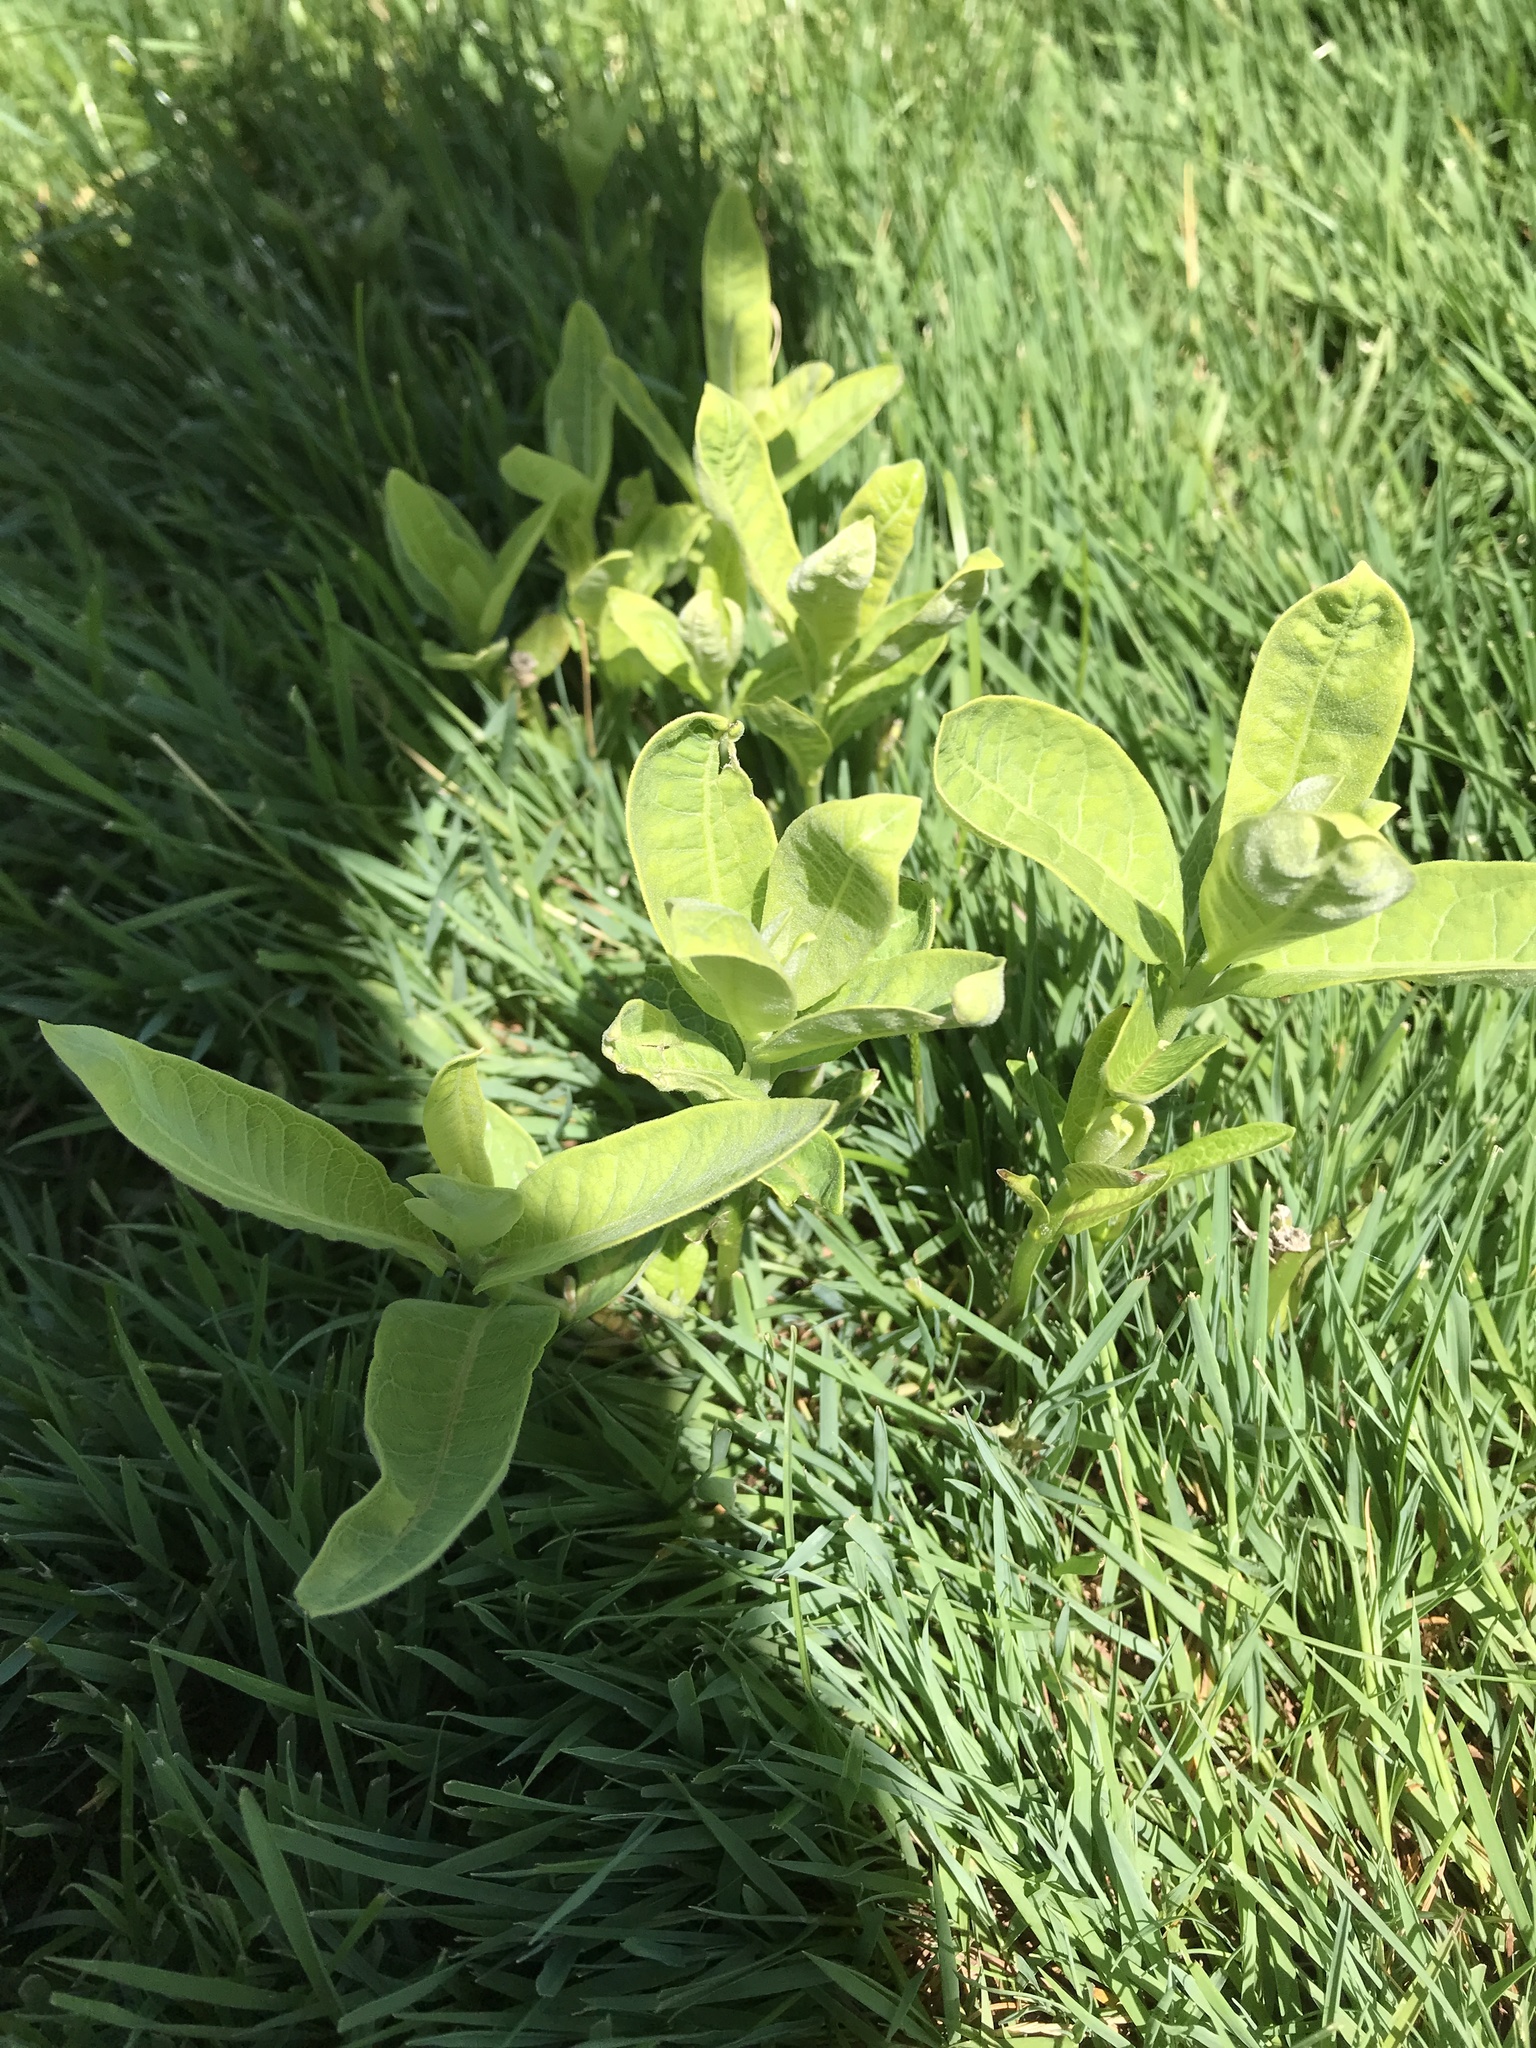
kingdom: Plantae
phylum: Tracheophyta
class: Magnoliopsida
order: Gentianales
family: Apocynaceae
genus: Asclepias
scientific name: Asclepias syriaca
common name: Common milkweed
